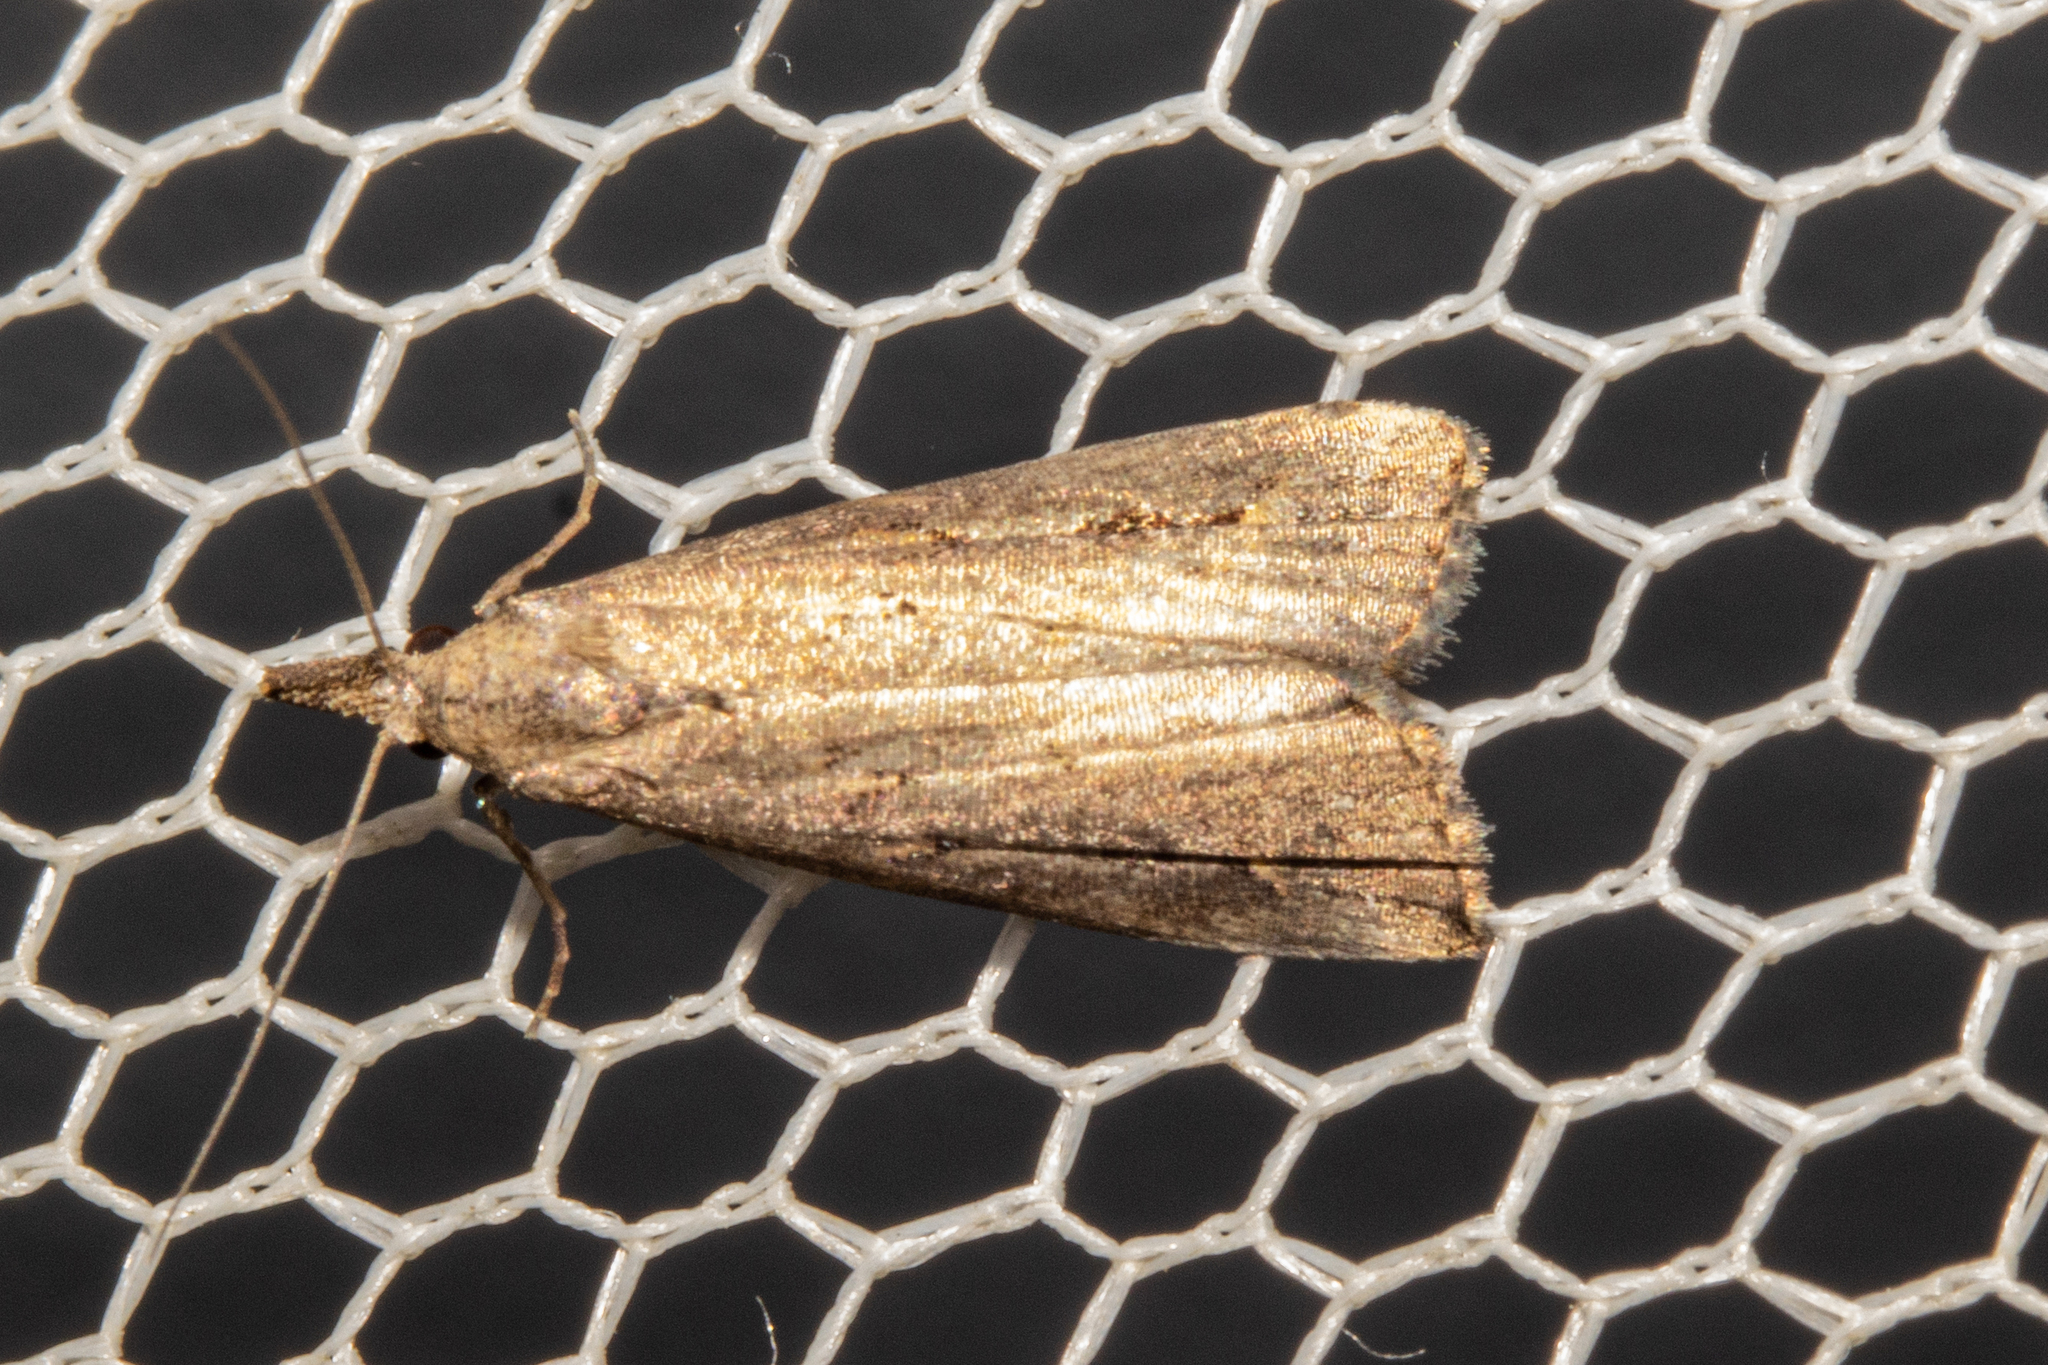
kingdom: Animalia
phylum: Arthropoda
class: Insecta
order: Lepidoptera
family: Erebidae
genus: Schrankia
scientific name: Schrankia costaestrigalis
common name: Pinion-streaked snout
